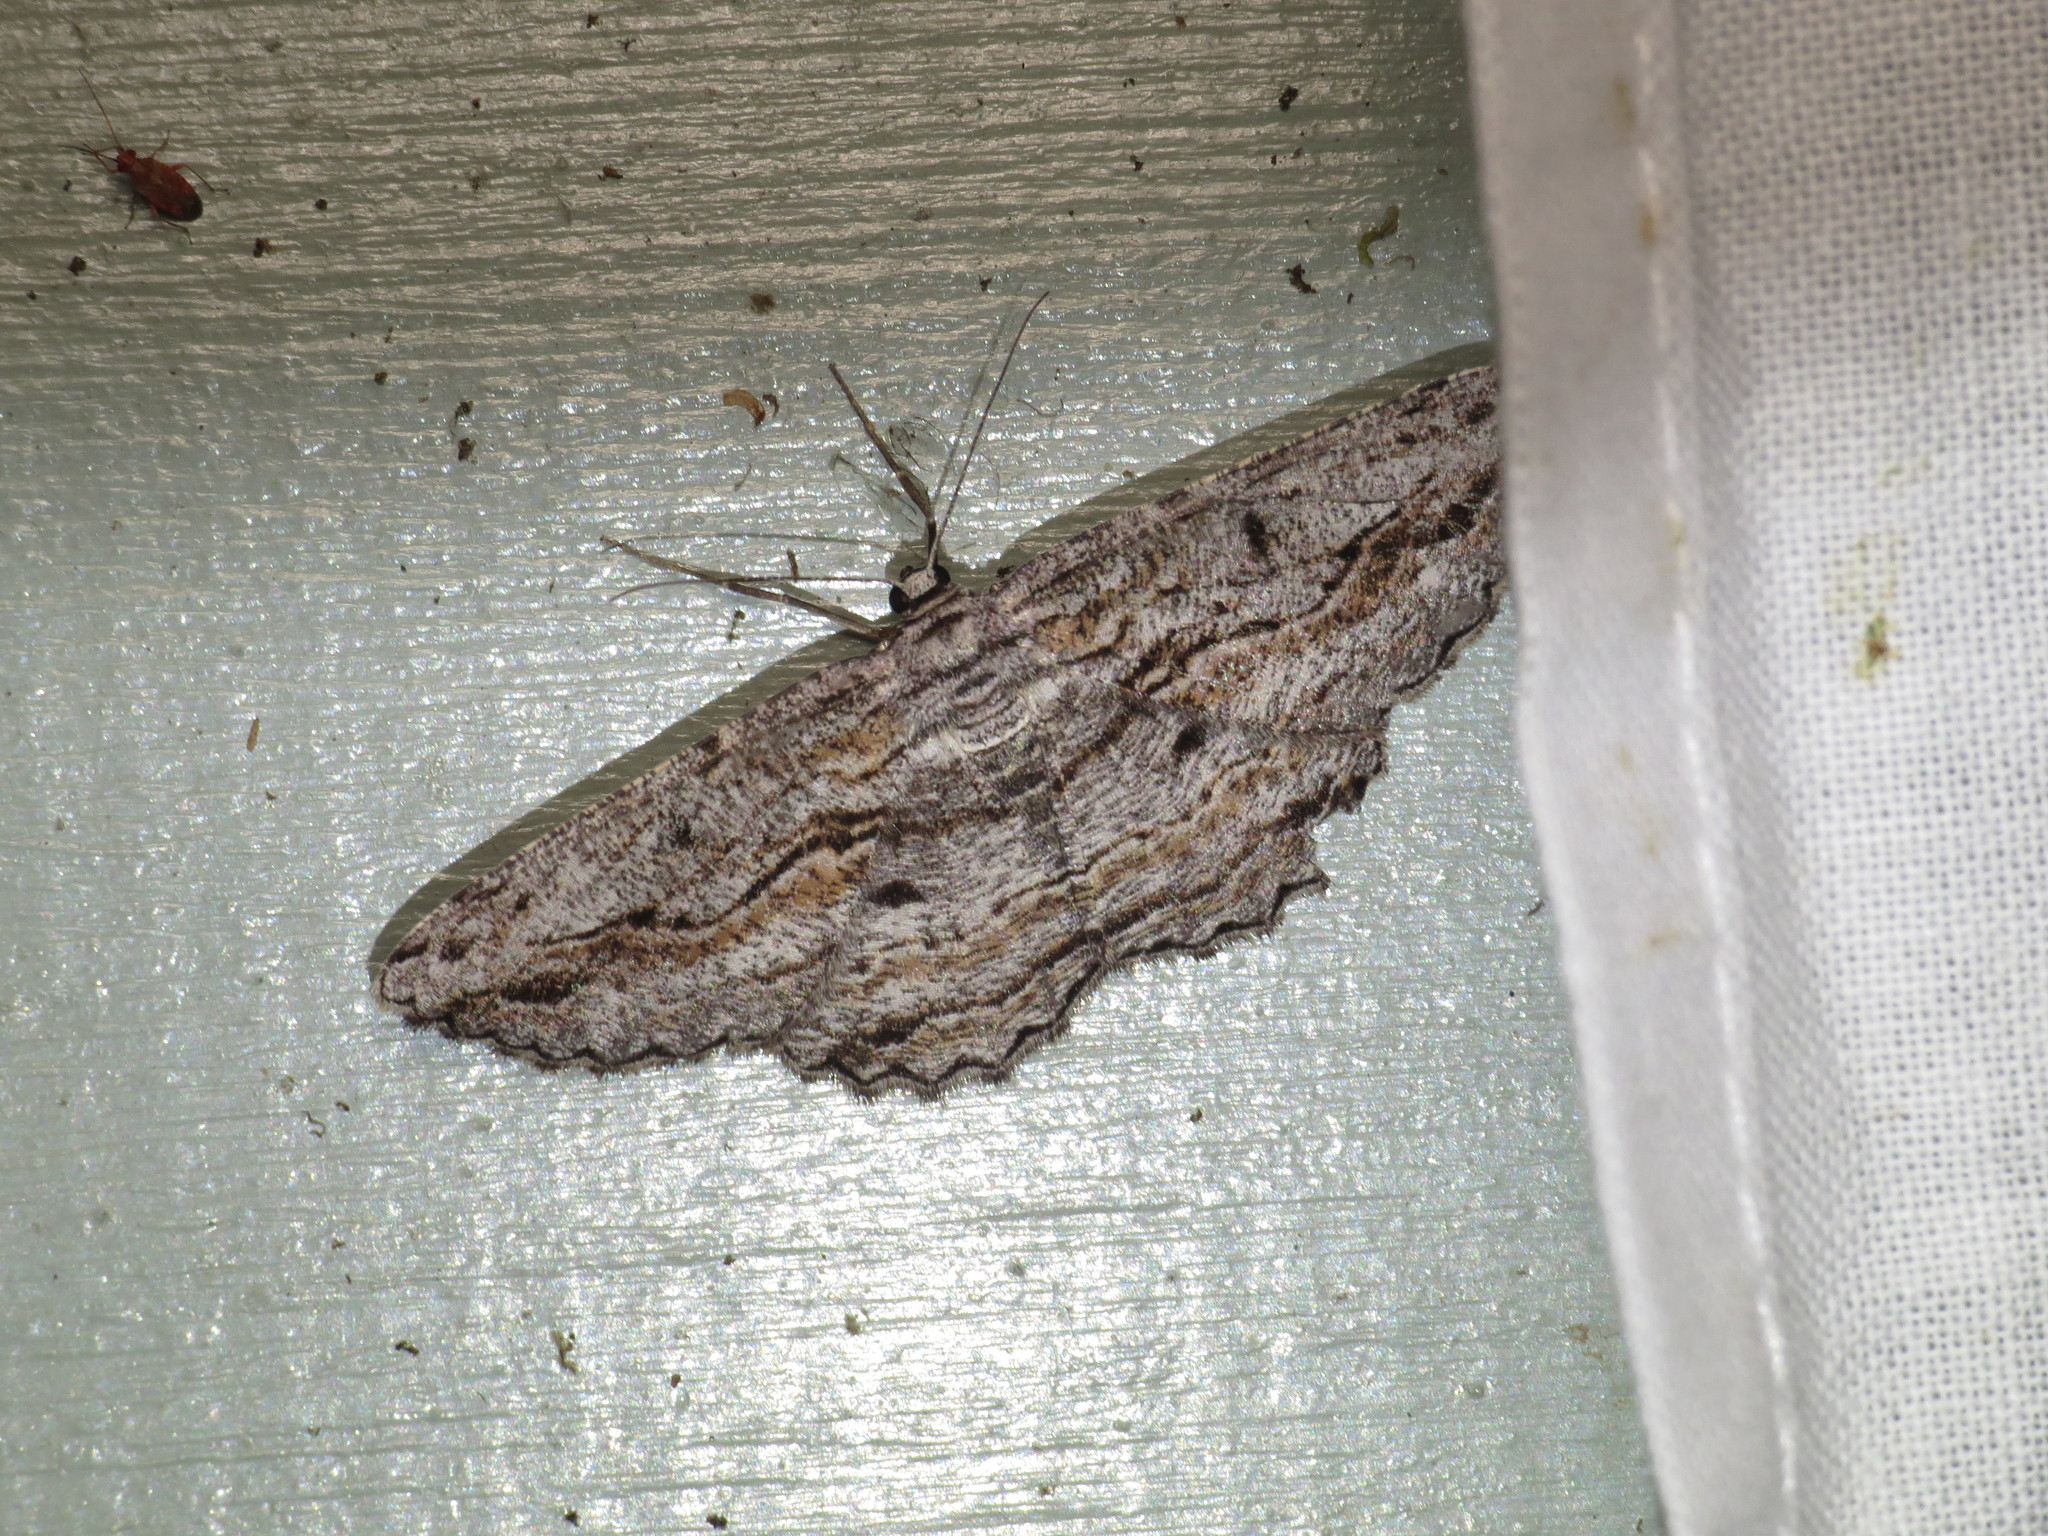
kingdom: Animalia
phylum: Arthropoda
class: Insecta
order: Lepidoptera
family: Geometridae
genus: Scioglyptis
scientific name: Scioglyptis loxographa
